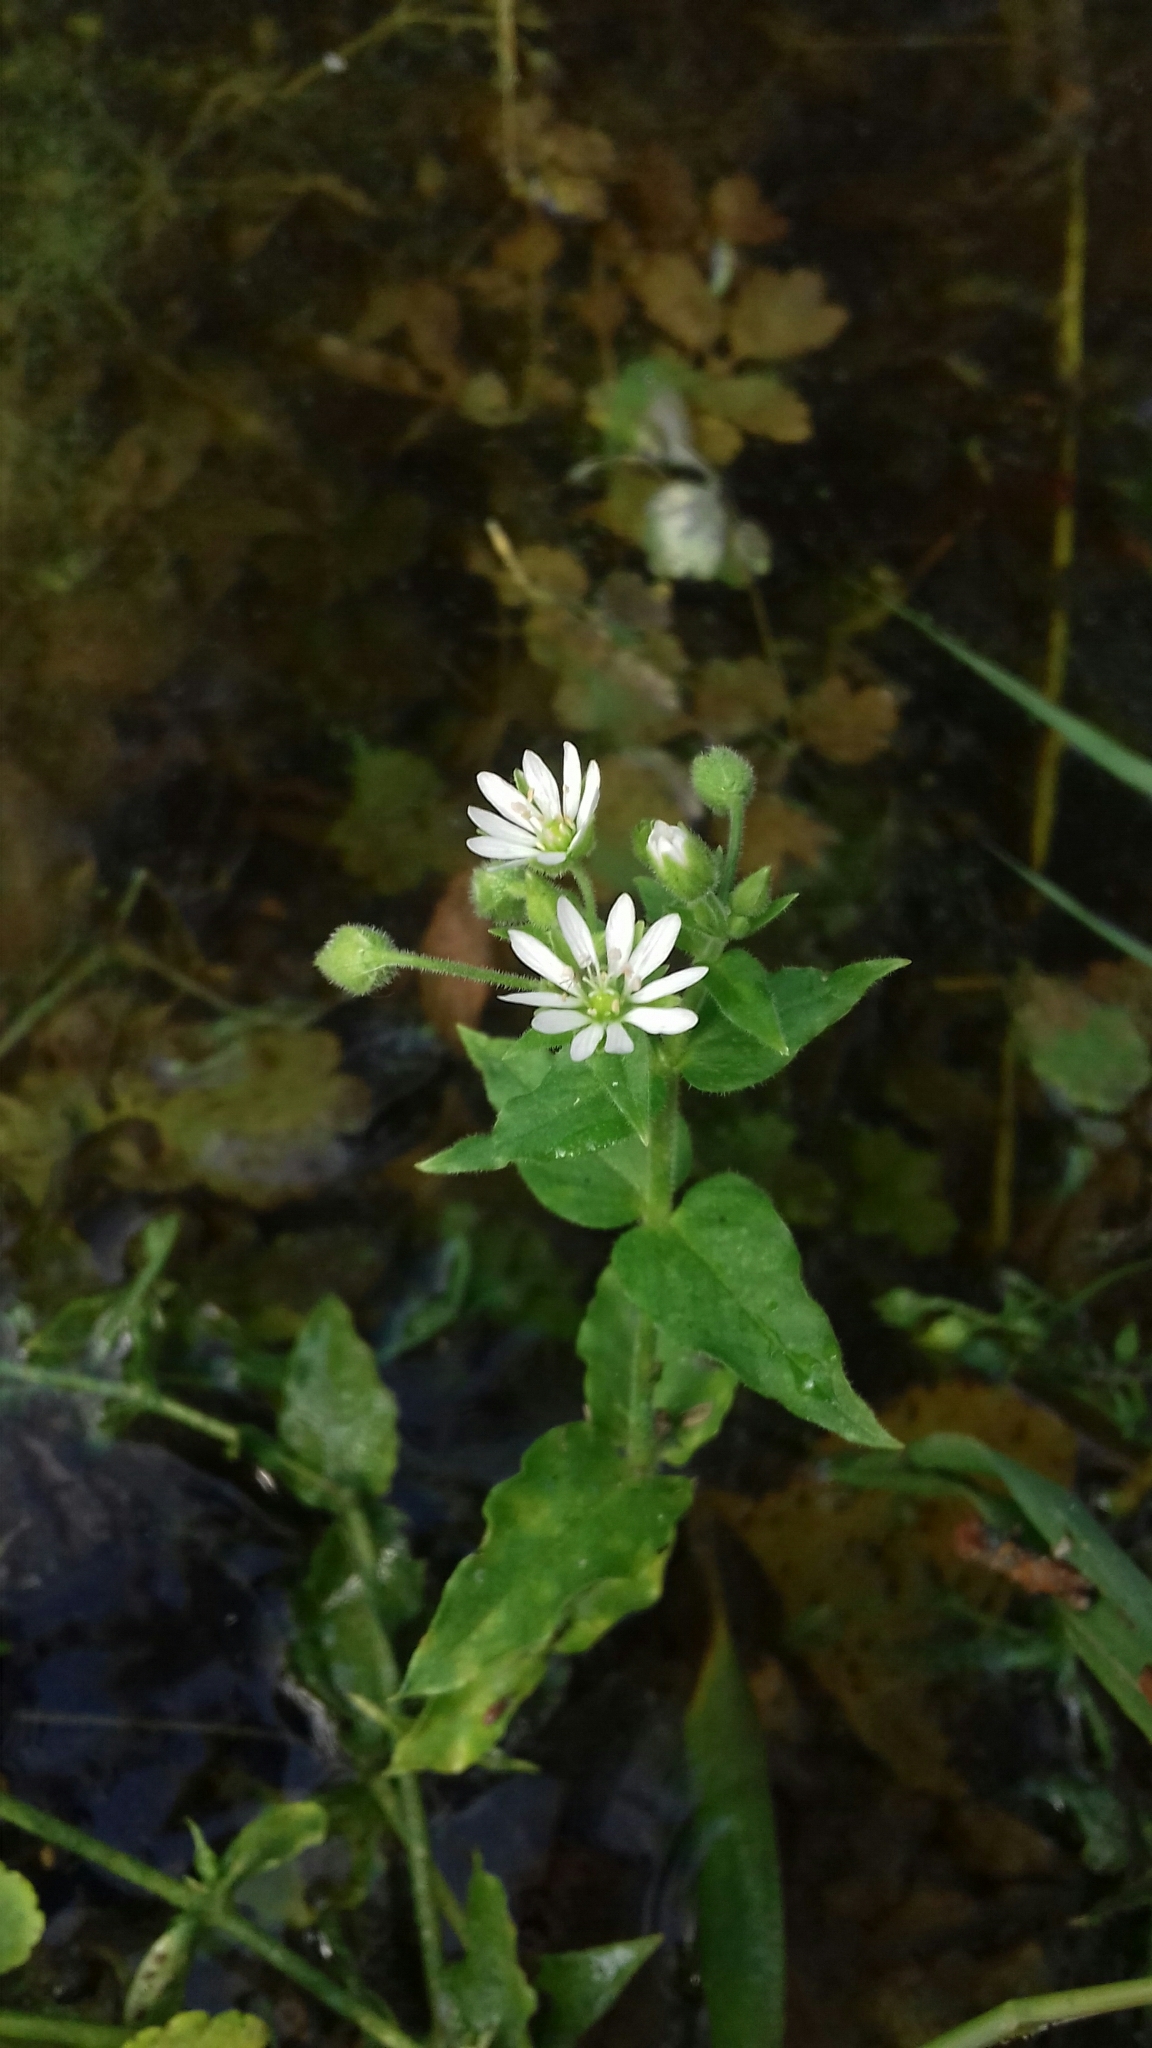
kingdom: Plantae
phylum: Tracheophyta
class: Magnoliopsida
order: Caryophyllales
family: Caryophyllaceae
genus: Stellaria
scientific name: Stellaria aquatica
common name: Water chickweed
